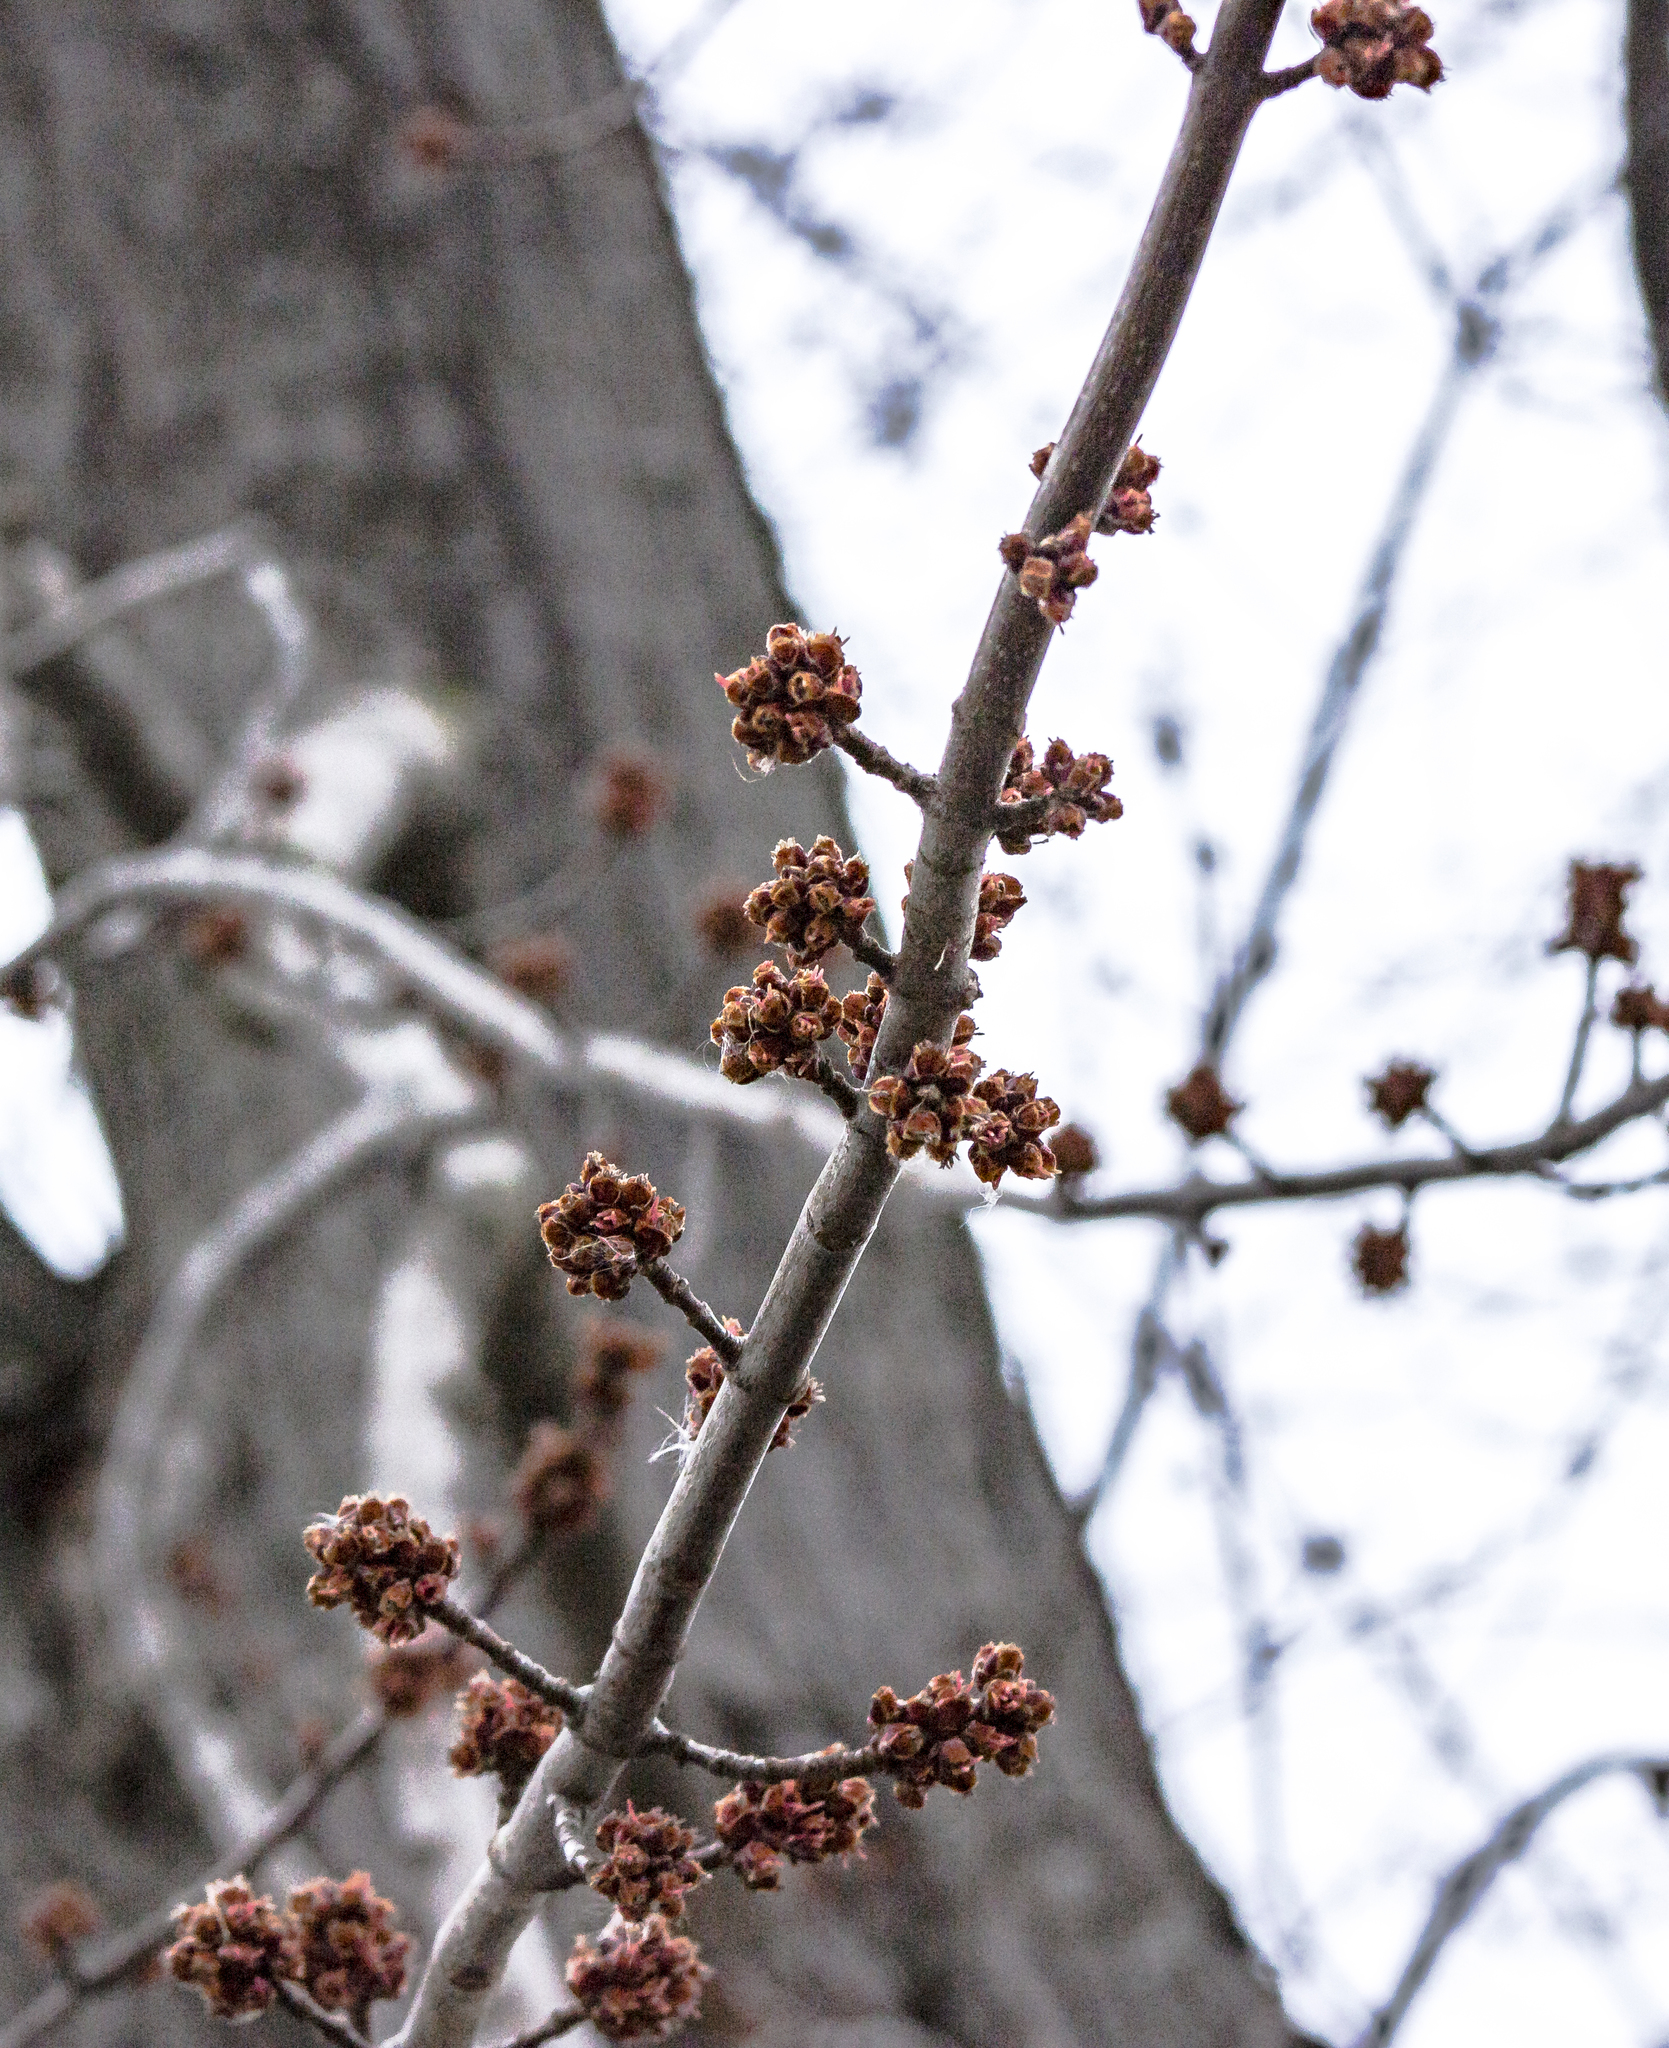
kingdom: Plantae
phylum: Tracheophyta
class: Magnoliopsida
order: Sapindales
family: Sapindaceae
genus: Acer
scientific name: Acer saccharinum
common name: Silver maple
